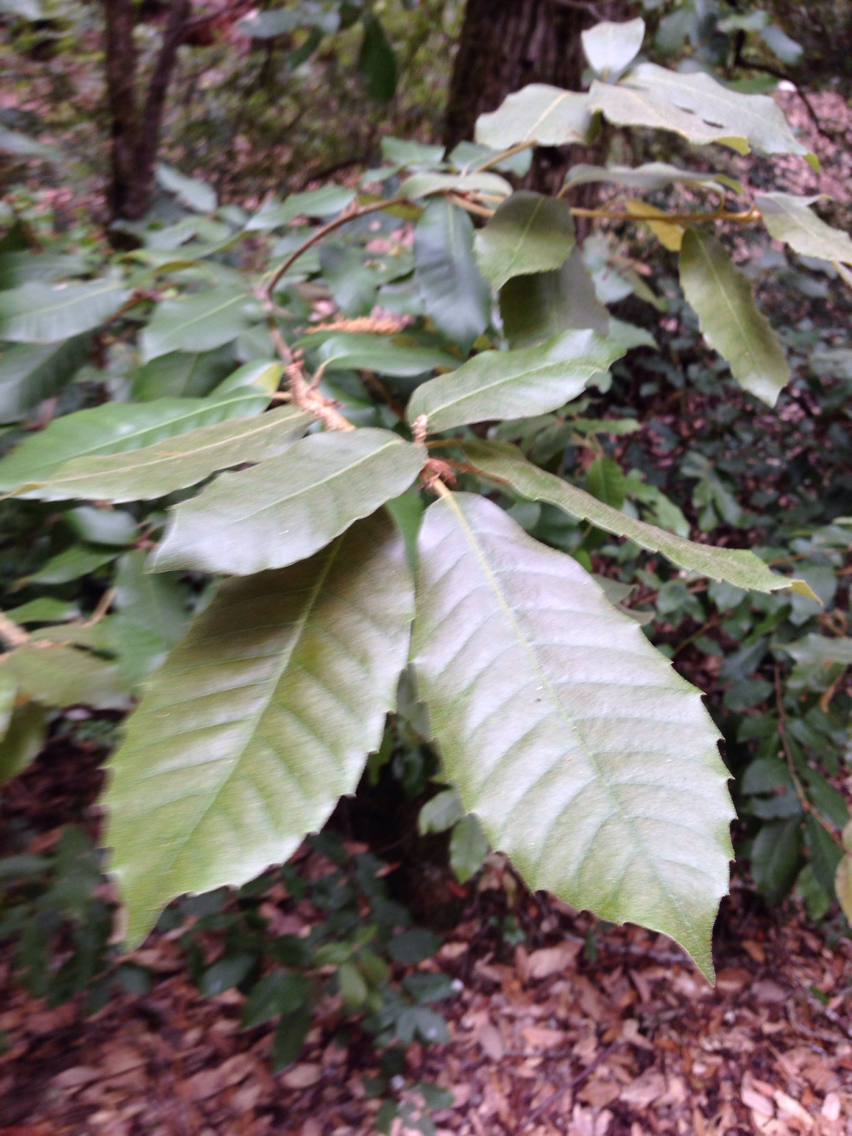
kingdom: Plantae
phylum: Tracheophyta
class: Magnoliopsida
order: Fagales
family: Fagaceae
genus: Notholithocarpus
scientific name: Notholithocarpus densiflorus
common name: Tan bark oak
